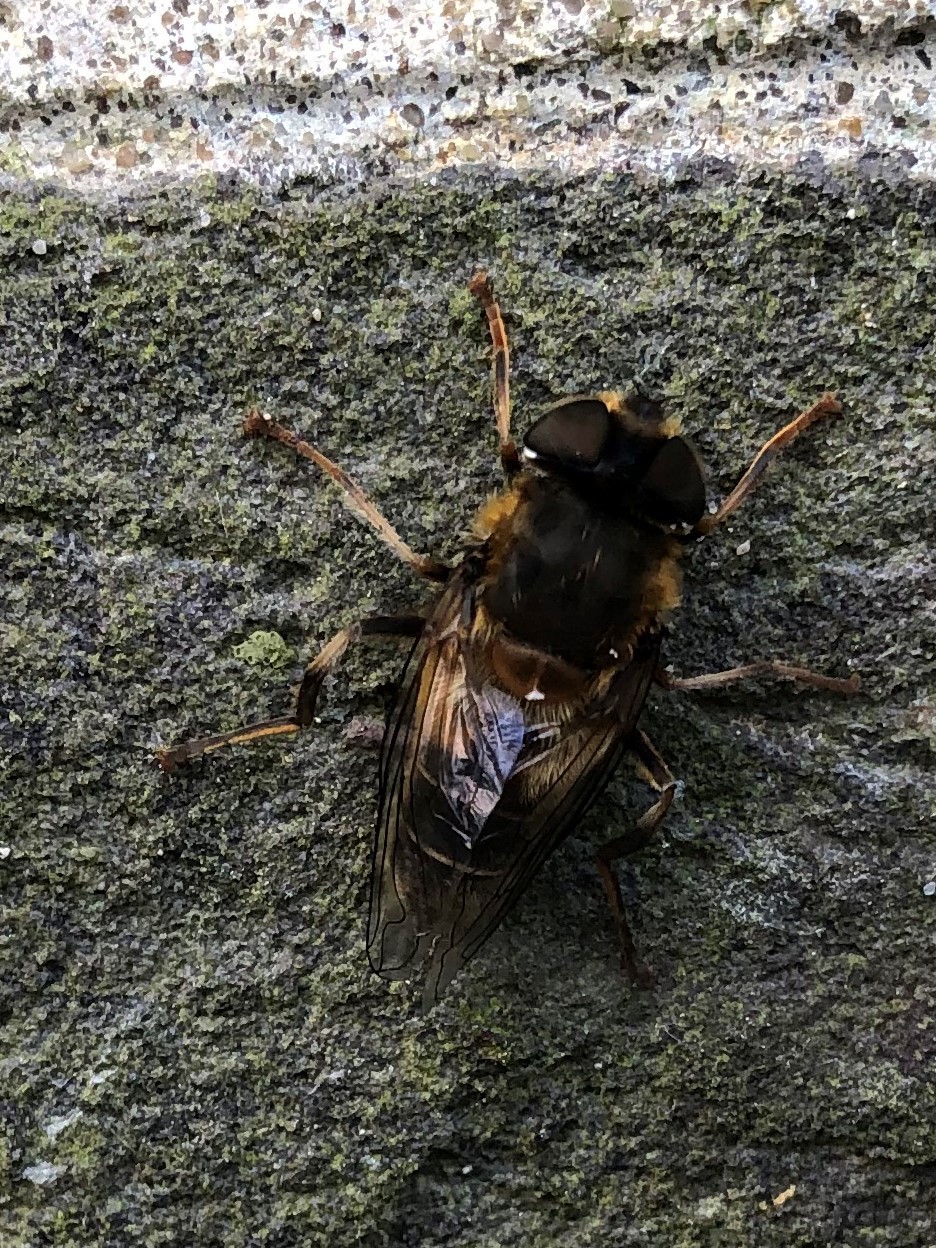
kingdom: Animalia
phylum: Arthropoda
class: Insecta
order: Diptera
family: Syrphidae
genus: Eristalis
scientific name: Eristalis pertinax
